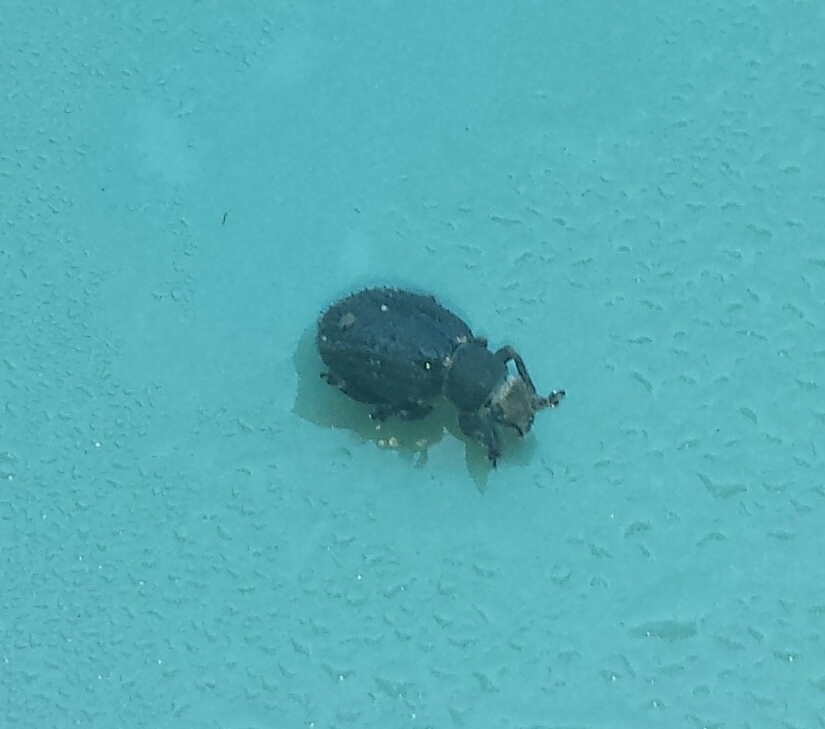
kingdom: Animalia
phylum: Arthropoda
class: Insecta
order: Coleoptera
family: Curculionidae
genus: Strophosoma
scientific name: Strophosoma melanogrammum
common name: Weevil
